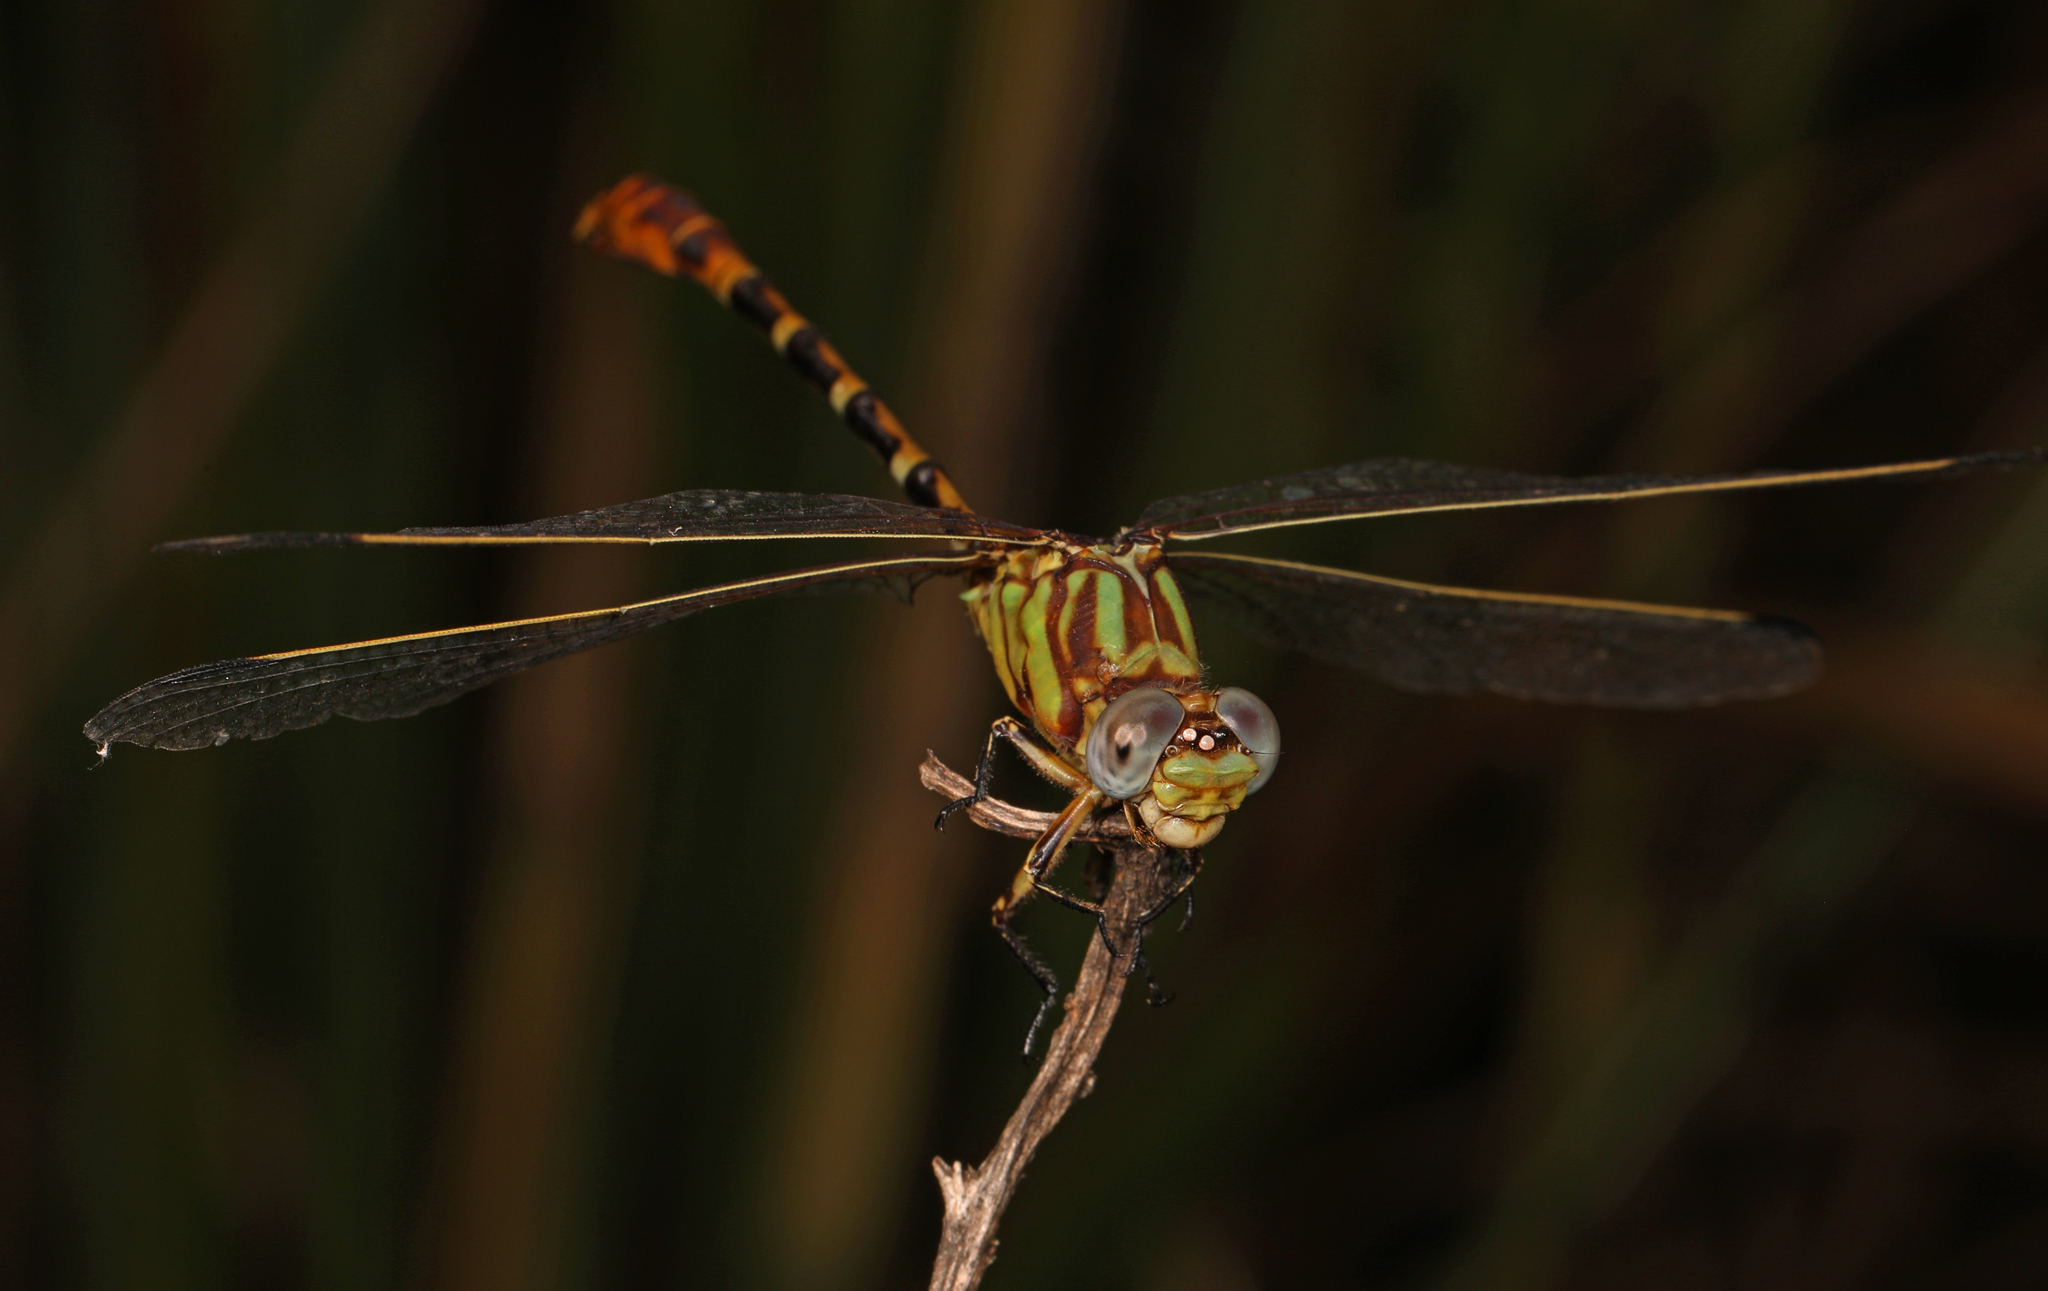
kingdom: Animalia
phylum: Arthropoda
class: Insecta
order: Odonata
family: Gomphidae
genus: Erpetogomphus
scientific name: Erpetogomphus designatus
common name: Eastern ringtail
